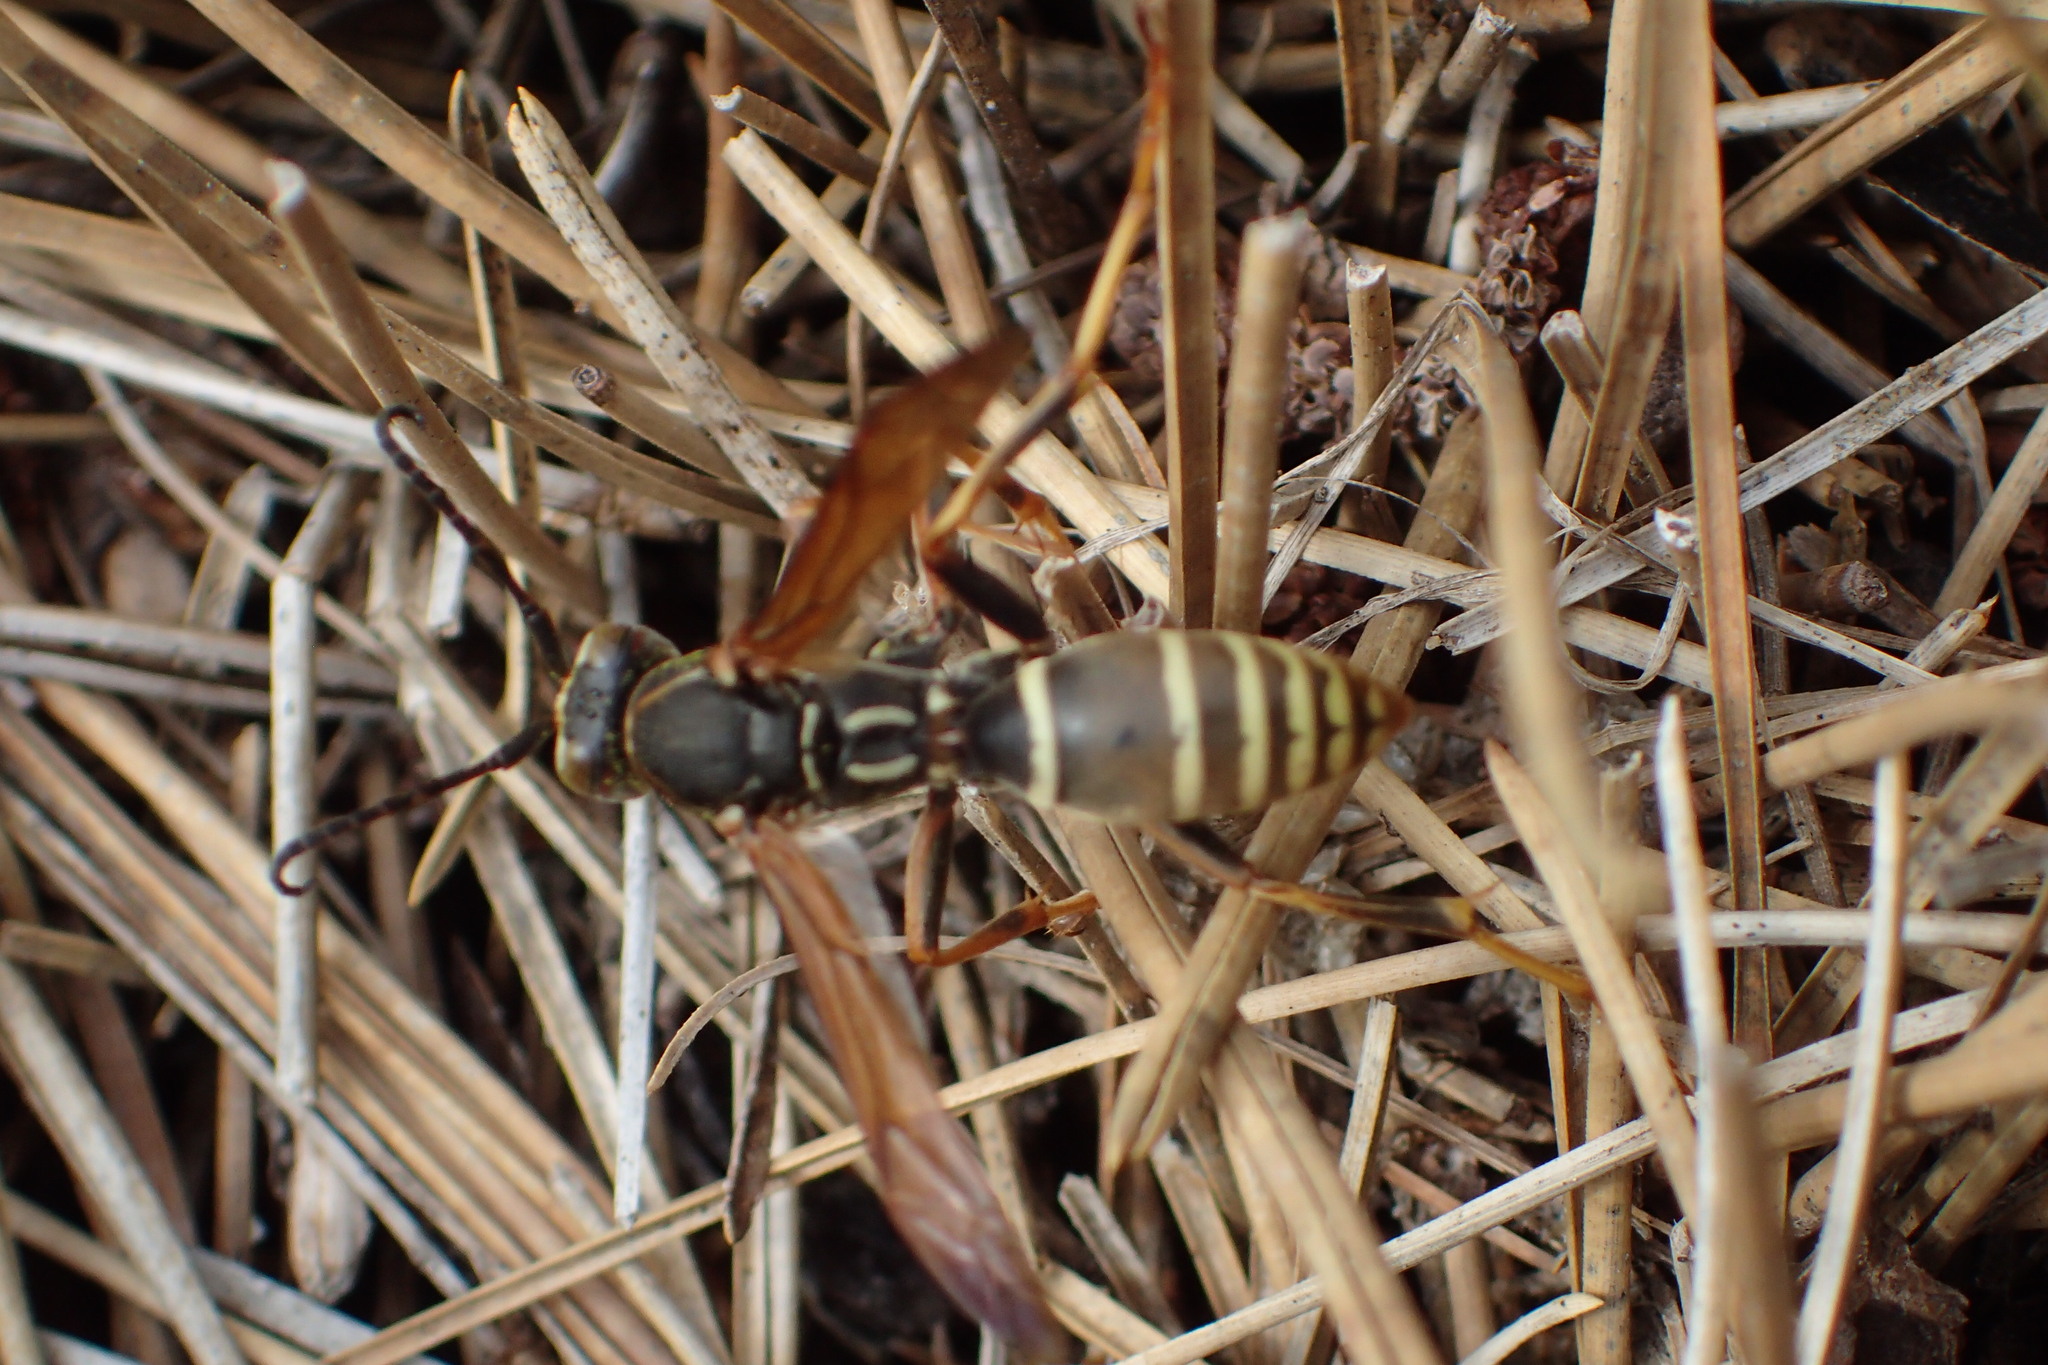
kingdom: Animalia
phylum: Arthropoda
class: Insecta
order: Hymenoptera
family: Eumenidae
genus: Polistes
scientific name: Polistes fuscatus
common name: Dark paper wasp
